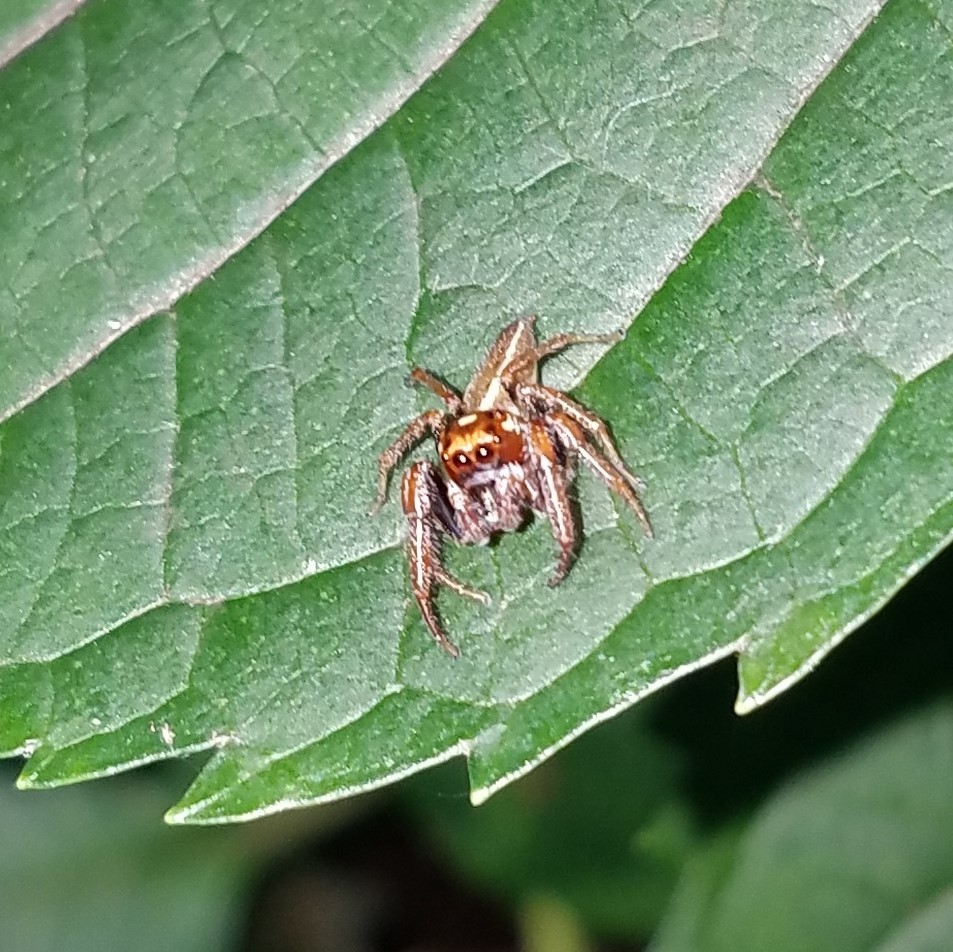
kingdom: Animalia
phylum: Arthropoda
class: Arachnida
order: Araneae
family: Salticidae
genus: Colonus
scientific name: Colonus sylvanus
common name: Jumping spiders
